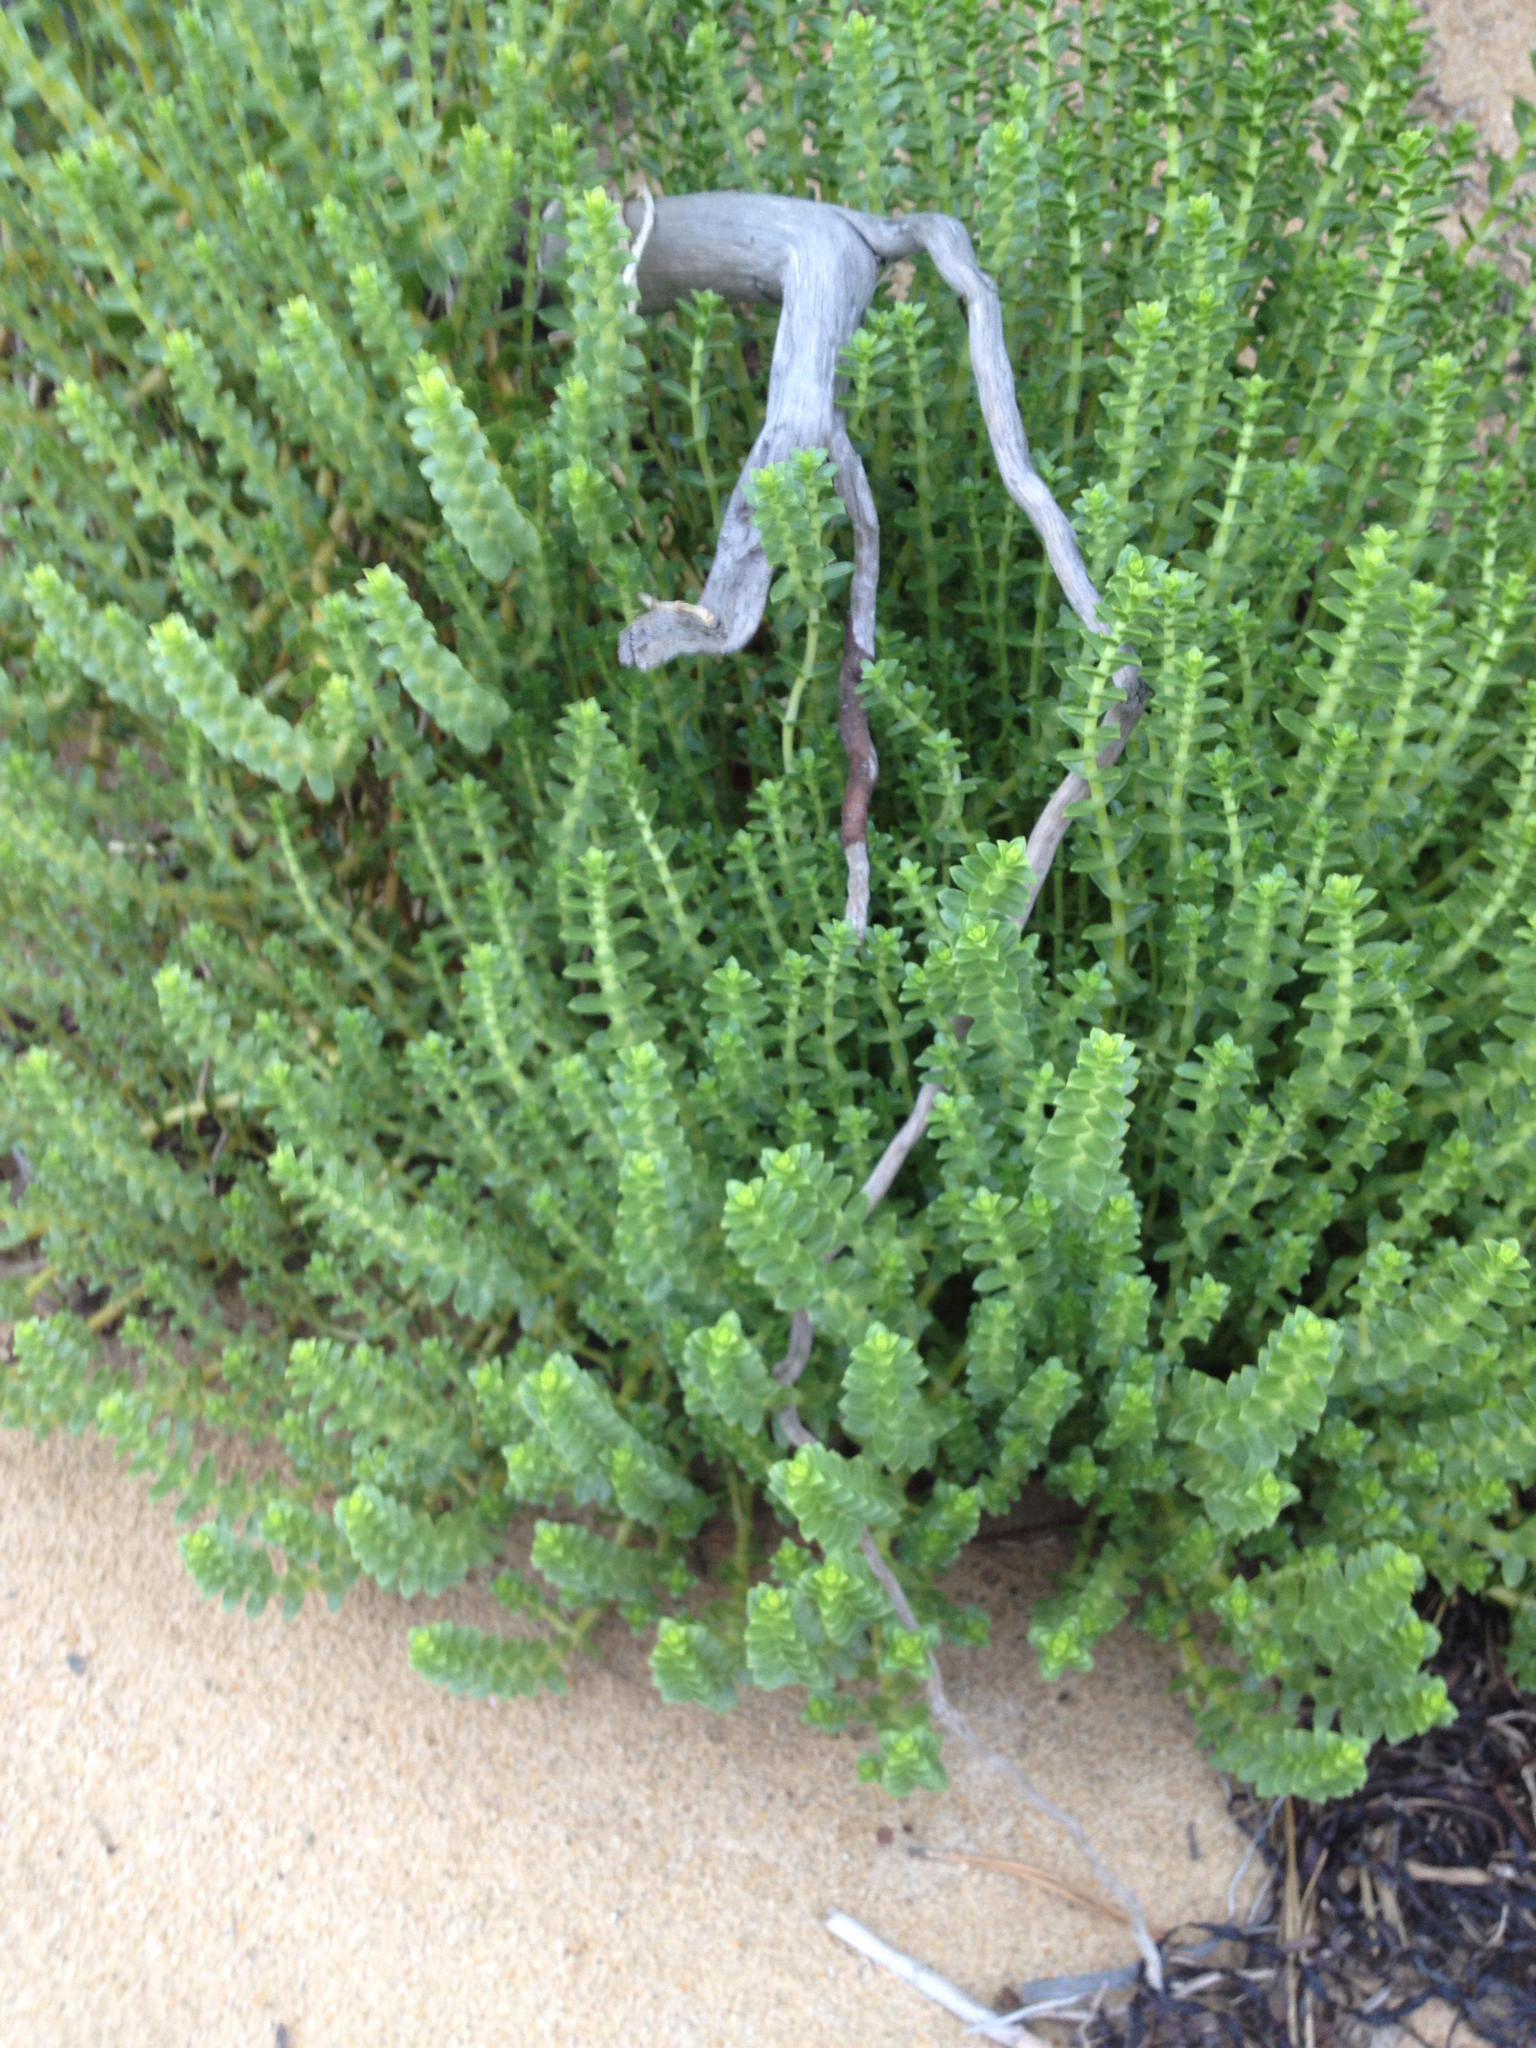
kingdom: Plantae
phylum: Tracheophyta
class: Magnoliopsida
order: Caryophyllales
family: Caryophyllaceae
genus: Honckenya
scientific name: Honckenya peploides
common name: Sea sandwort
